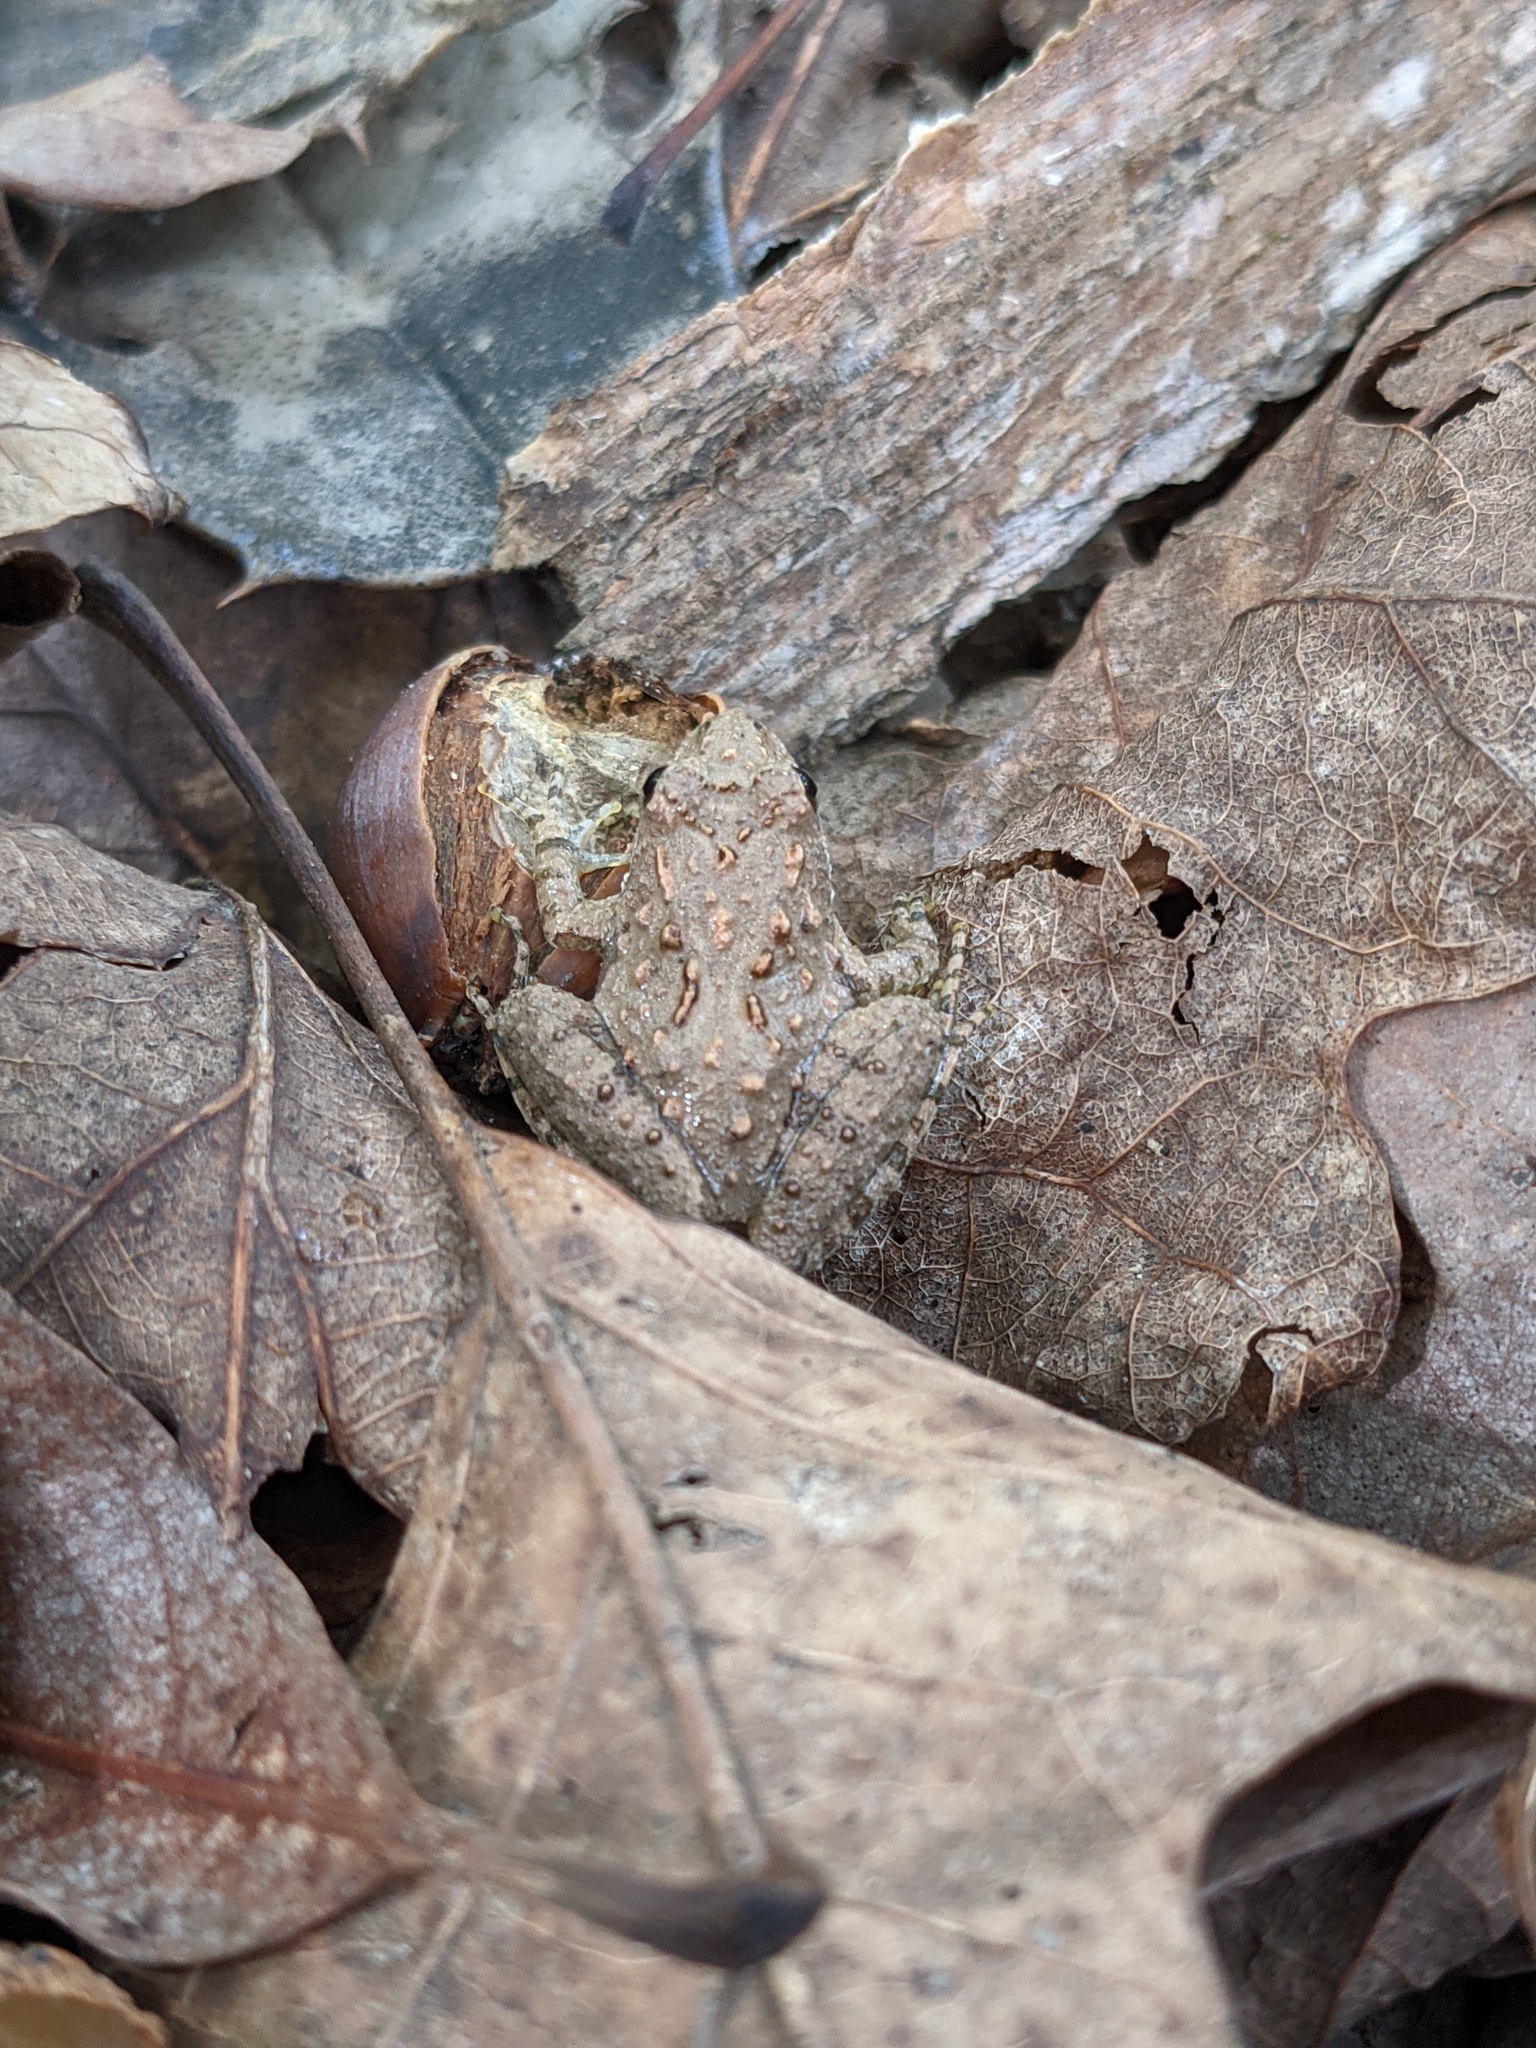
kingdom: Animalia
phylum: Chordata
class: Amphibia
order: Anura
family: Hylidae
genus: Acris
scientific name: Acris crepitans
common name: Northern cricket frog
